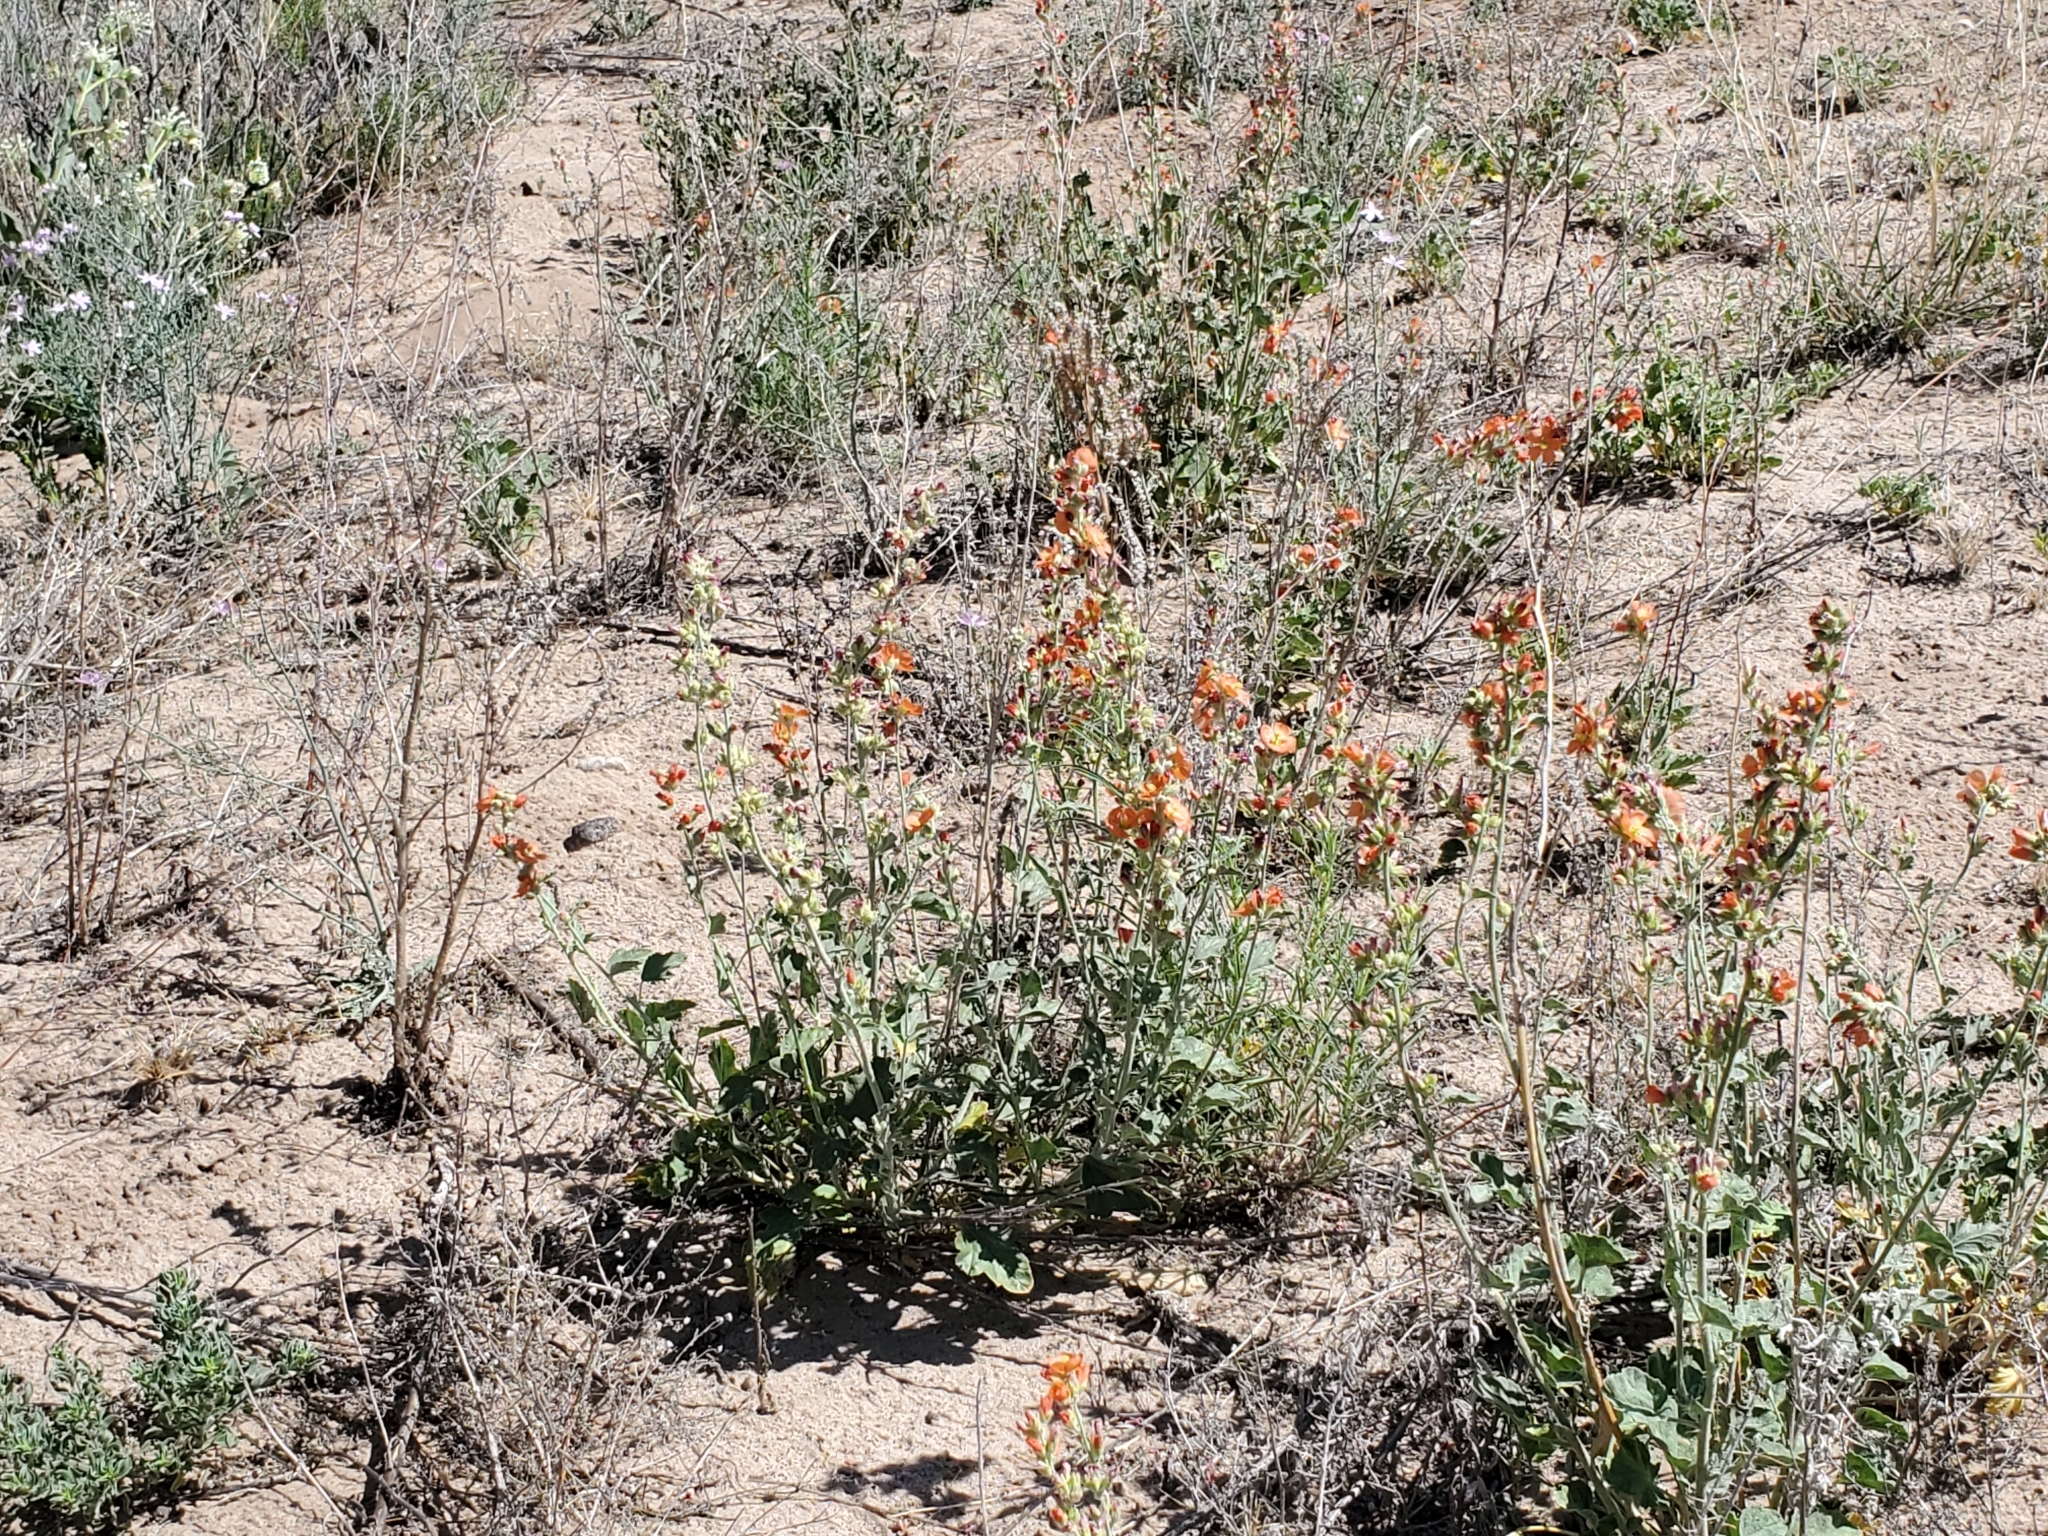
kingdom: Plantae
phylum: Tracheophyta
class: Magnoliopsida
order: Malvales
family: Malvaceae
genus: Sphaeralcea
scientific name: Sphaeralcea parvifolia
